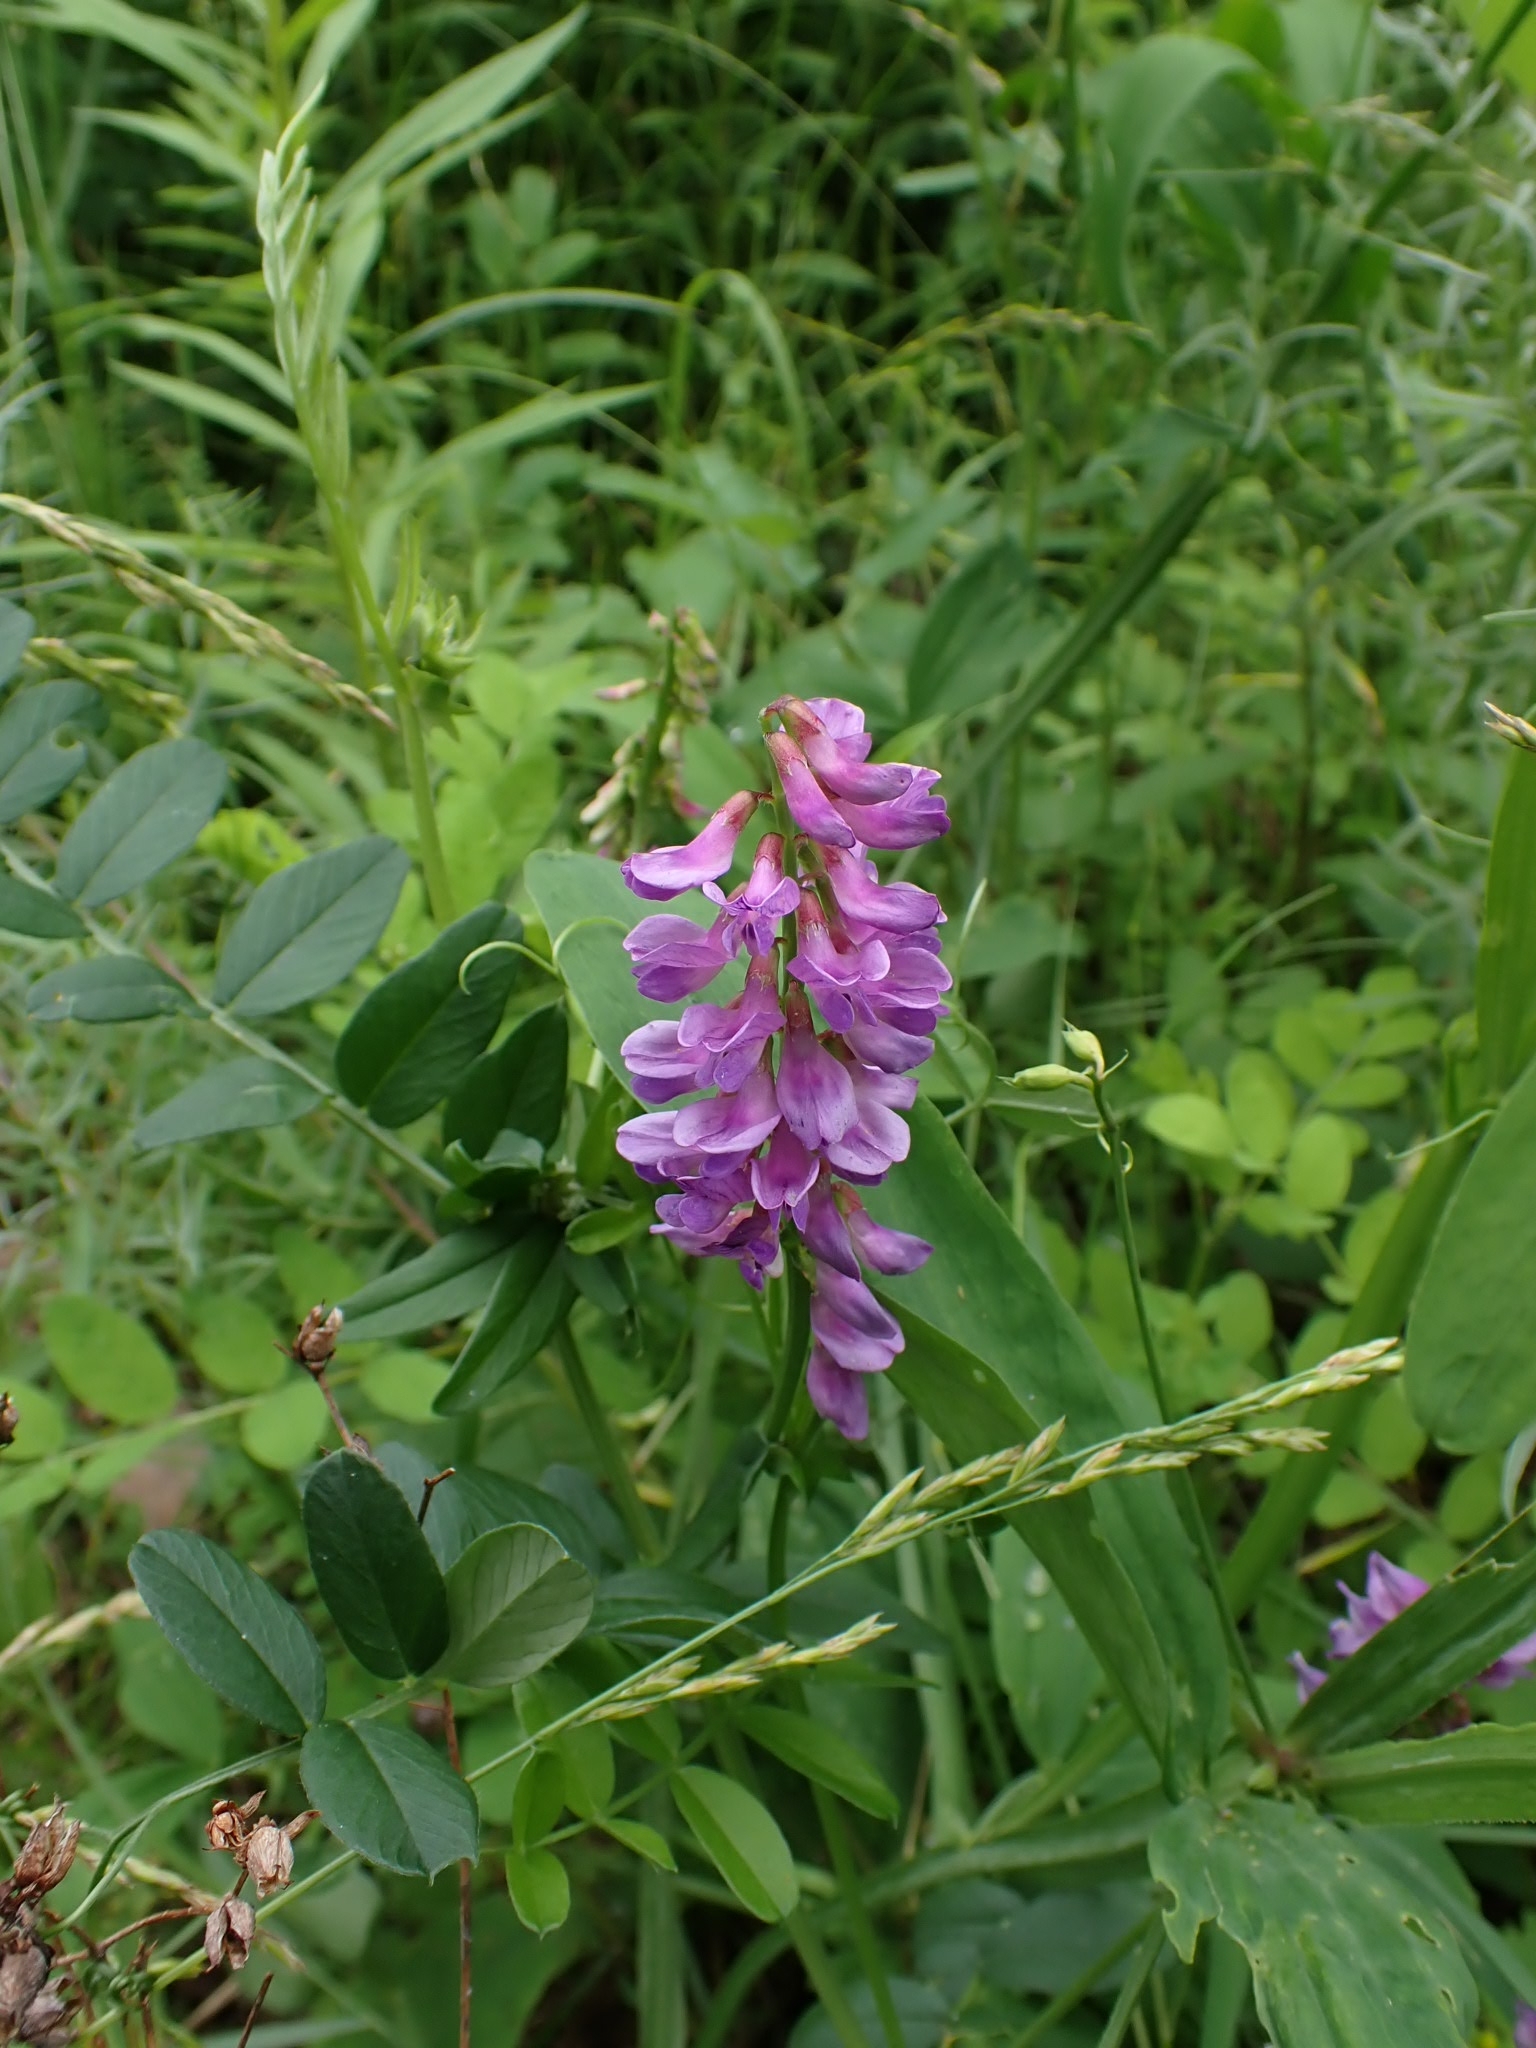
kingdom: Plantae
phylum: Tracheophyta
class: Magnoliopsida
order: Fabales
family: Fabaceae
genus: Vicia
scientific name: Vicia amoena
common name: Cheder ebs
